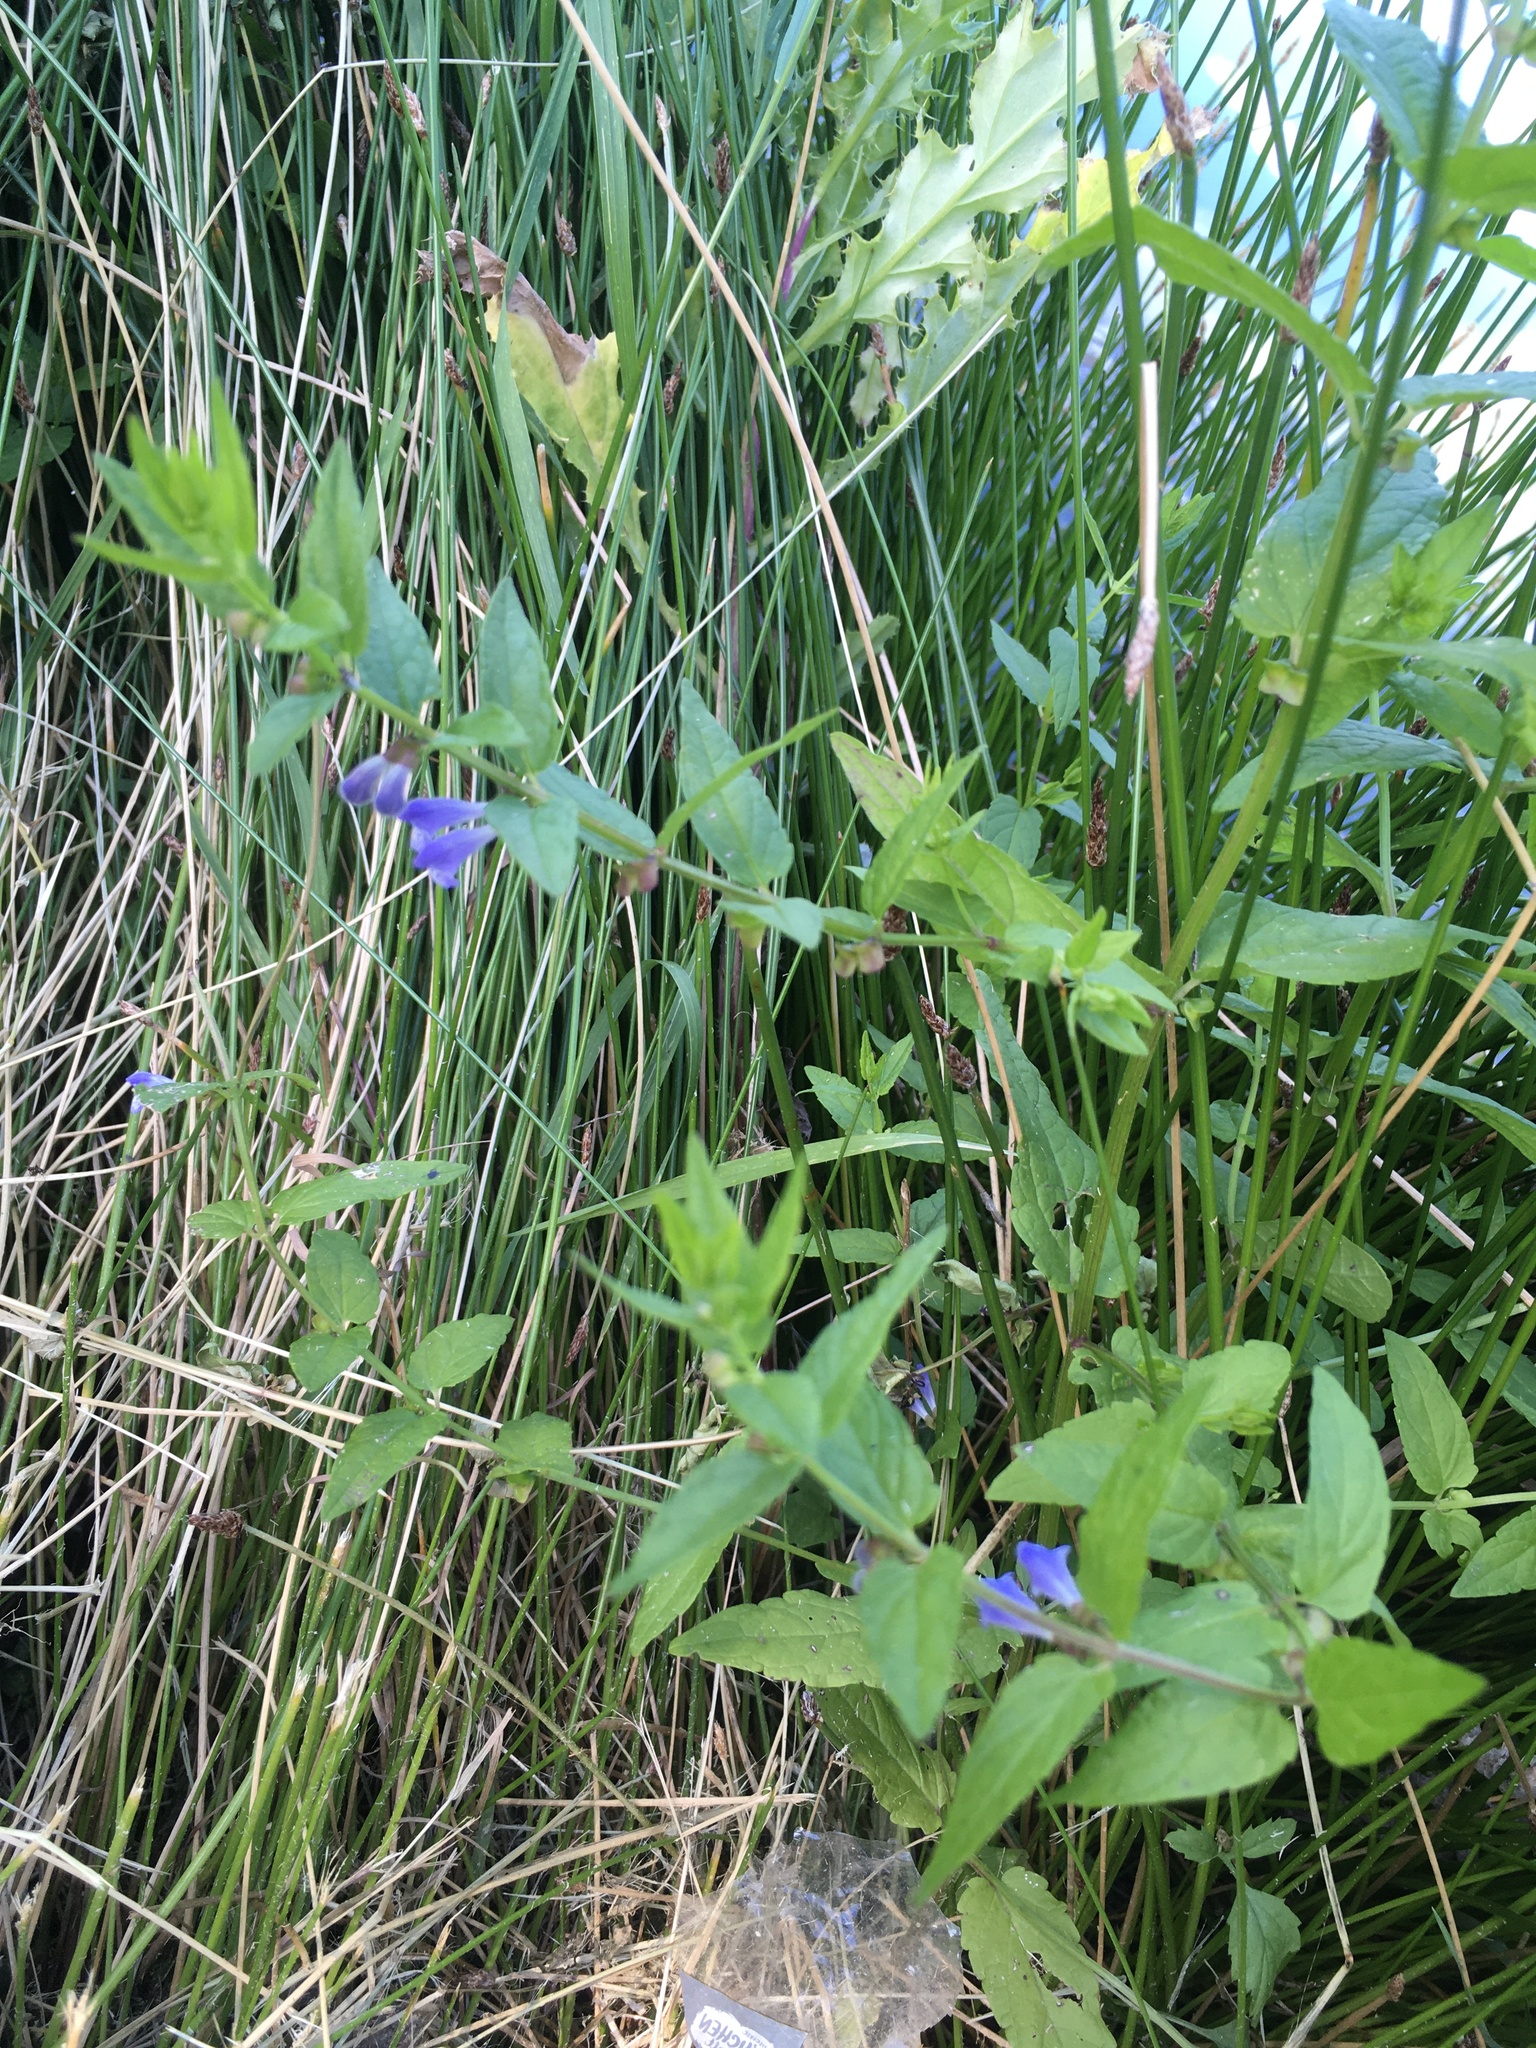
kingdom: Plantae
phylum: Tracheophyta
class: Magnoliopsida
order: Lamiales
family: Lamiaceae
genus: Scutellaria
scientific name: Scutellaria galericulata
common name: Skullcap
